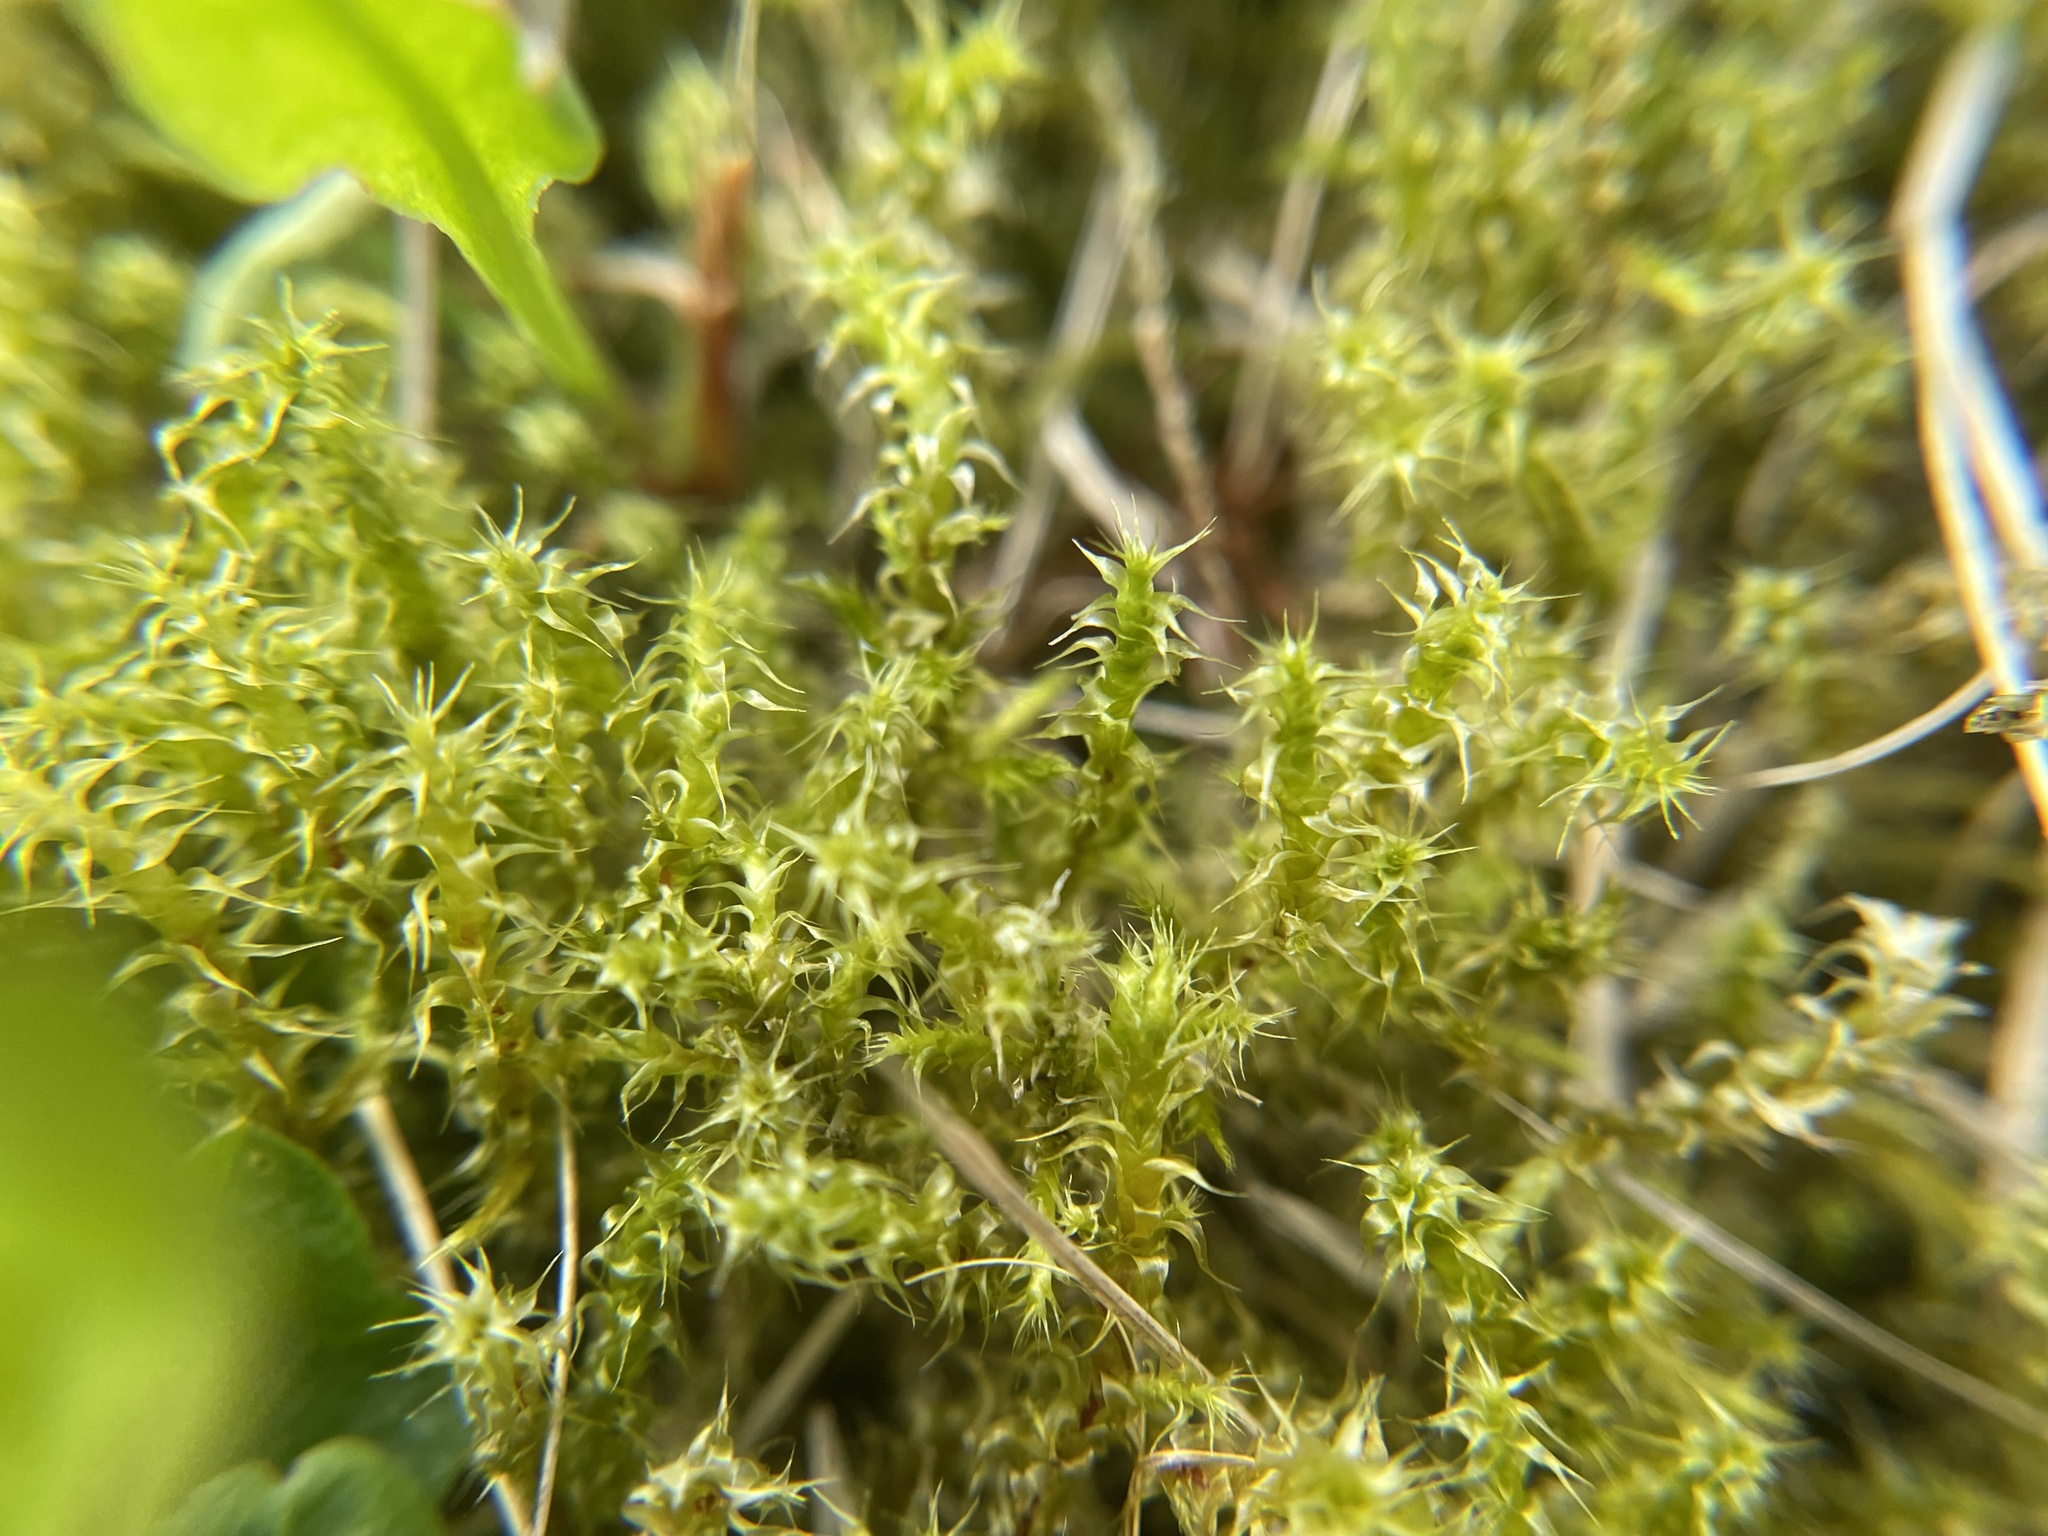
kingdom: Plantae
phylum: Bryophyta
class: Bryopsida
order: Hypnales
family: Hylocomiaceae
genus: Rhytidiadelphus
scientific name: Rhytidiadelphus squarrosus
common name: Springy turf-moss
